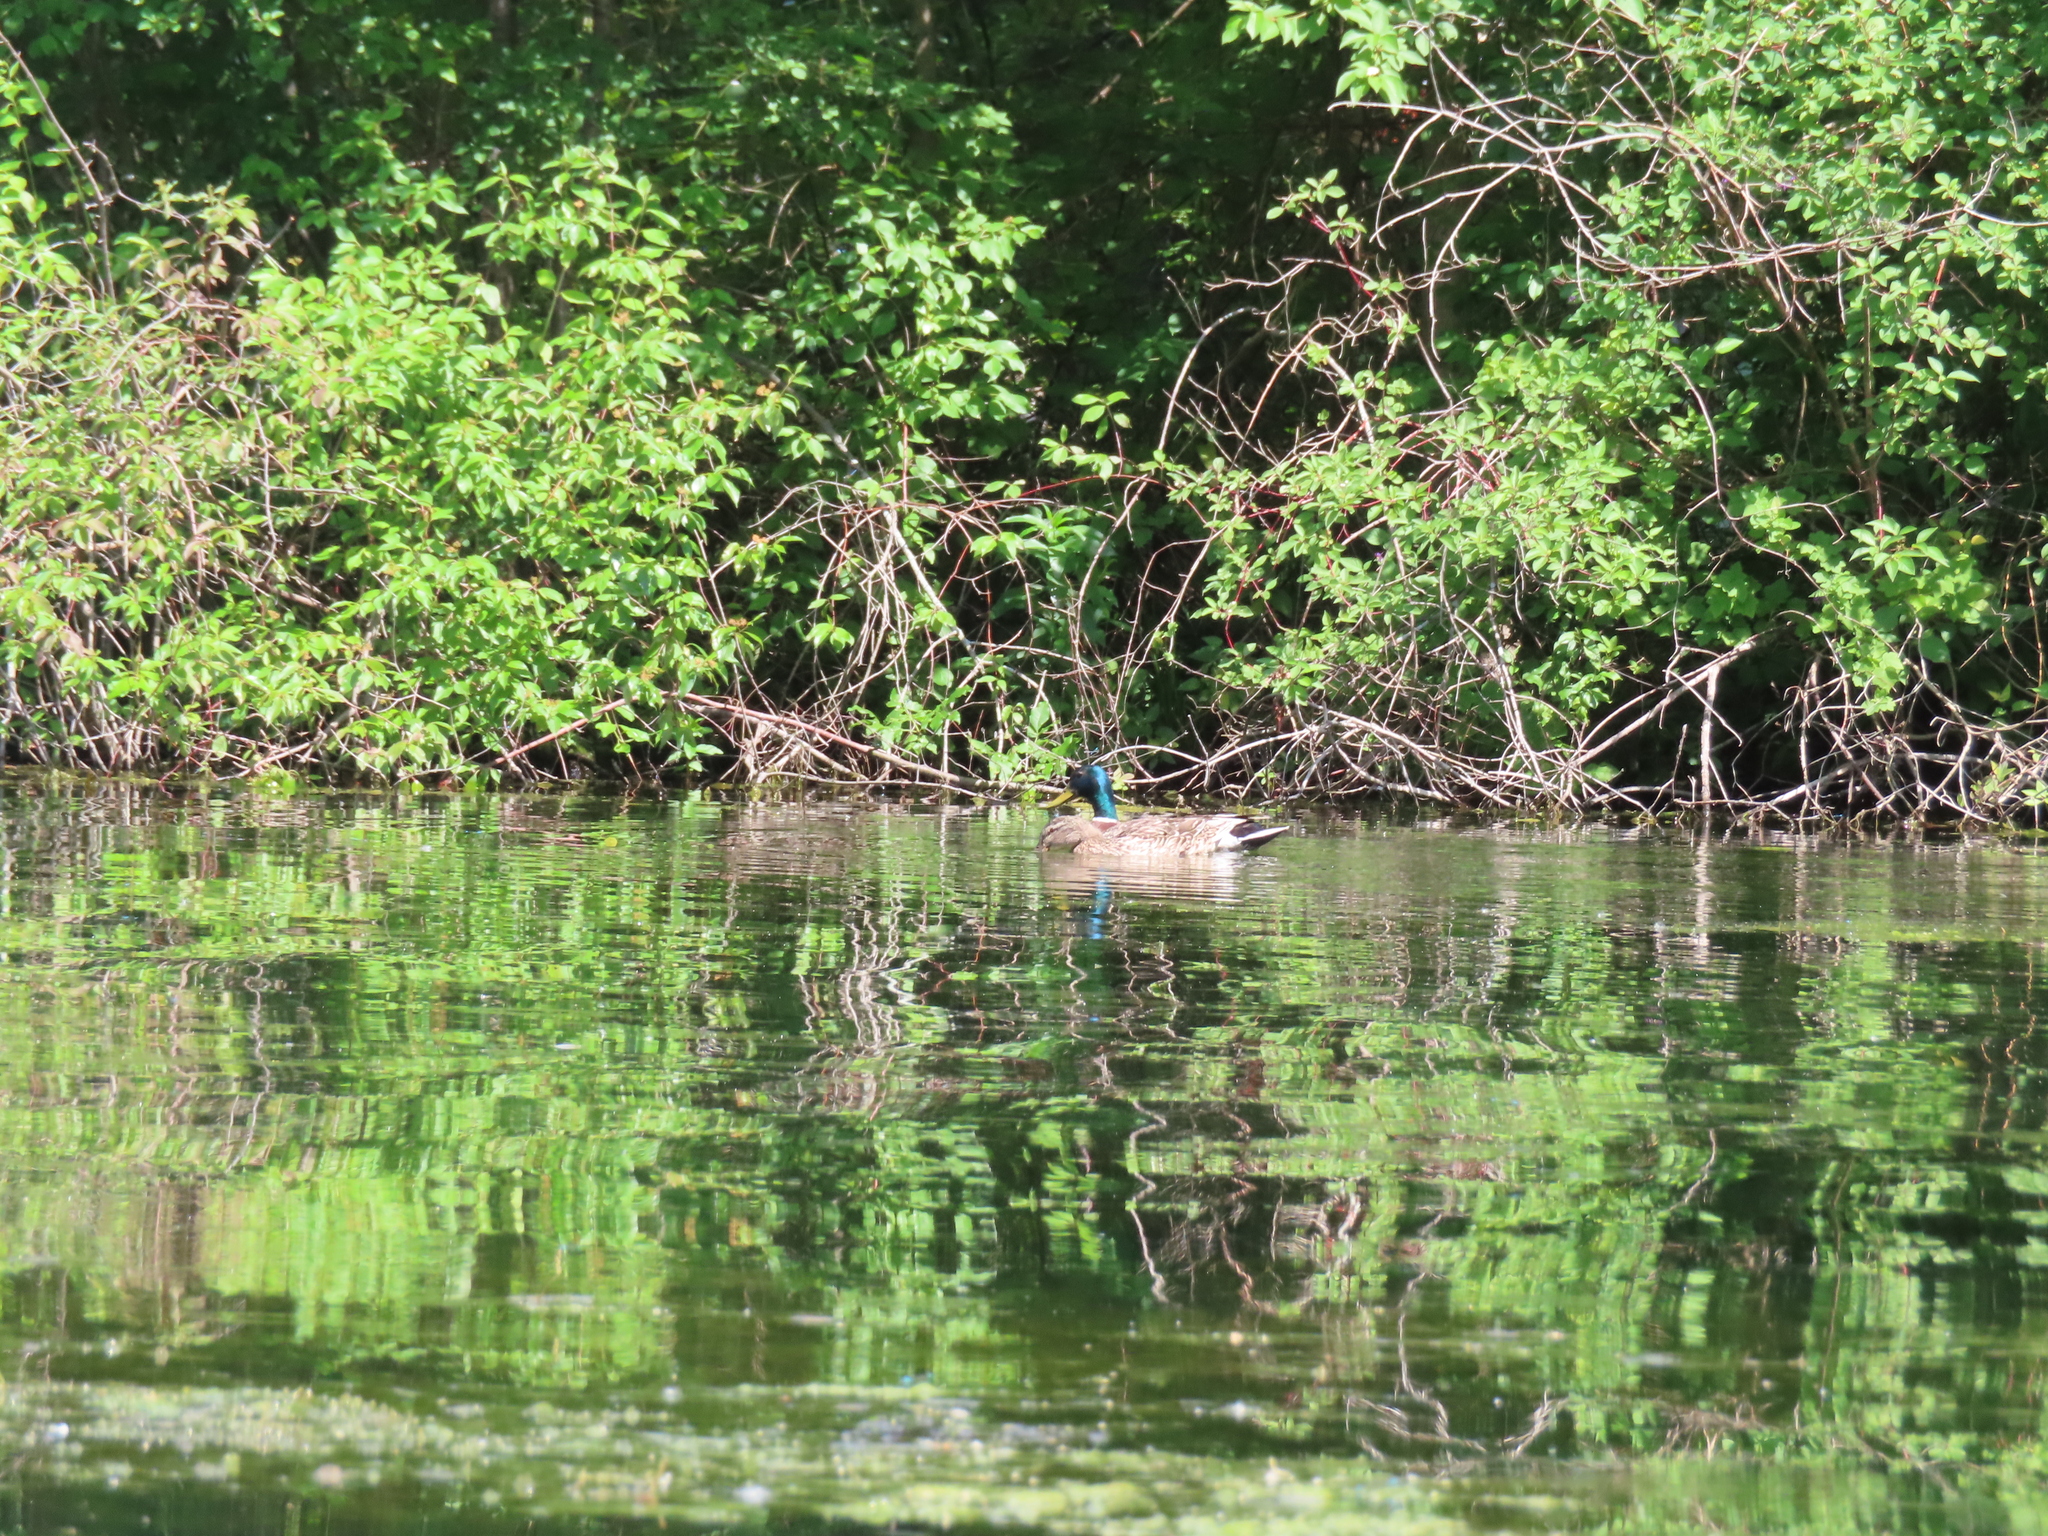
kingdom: Animalia
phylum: Chordata
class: Aves
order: Anseriformes
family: Anatidae
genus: Anas
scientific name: Anas platyrhynchos
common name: Mallard
